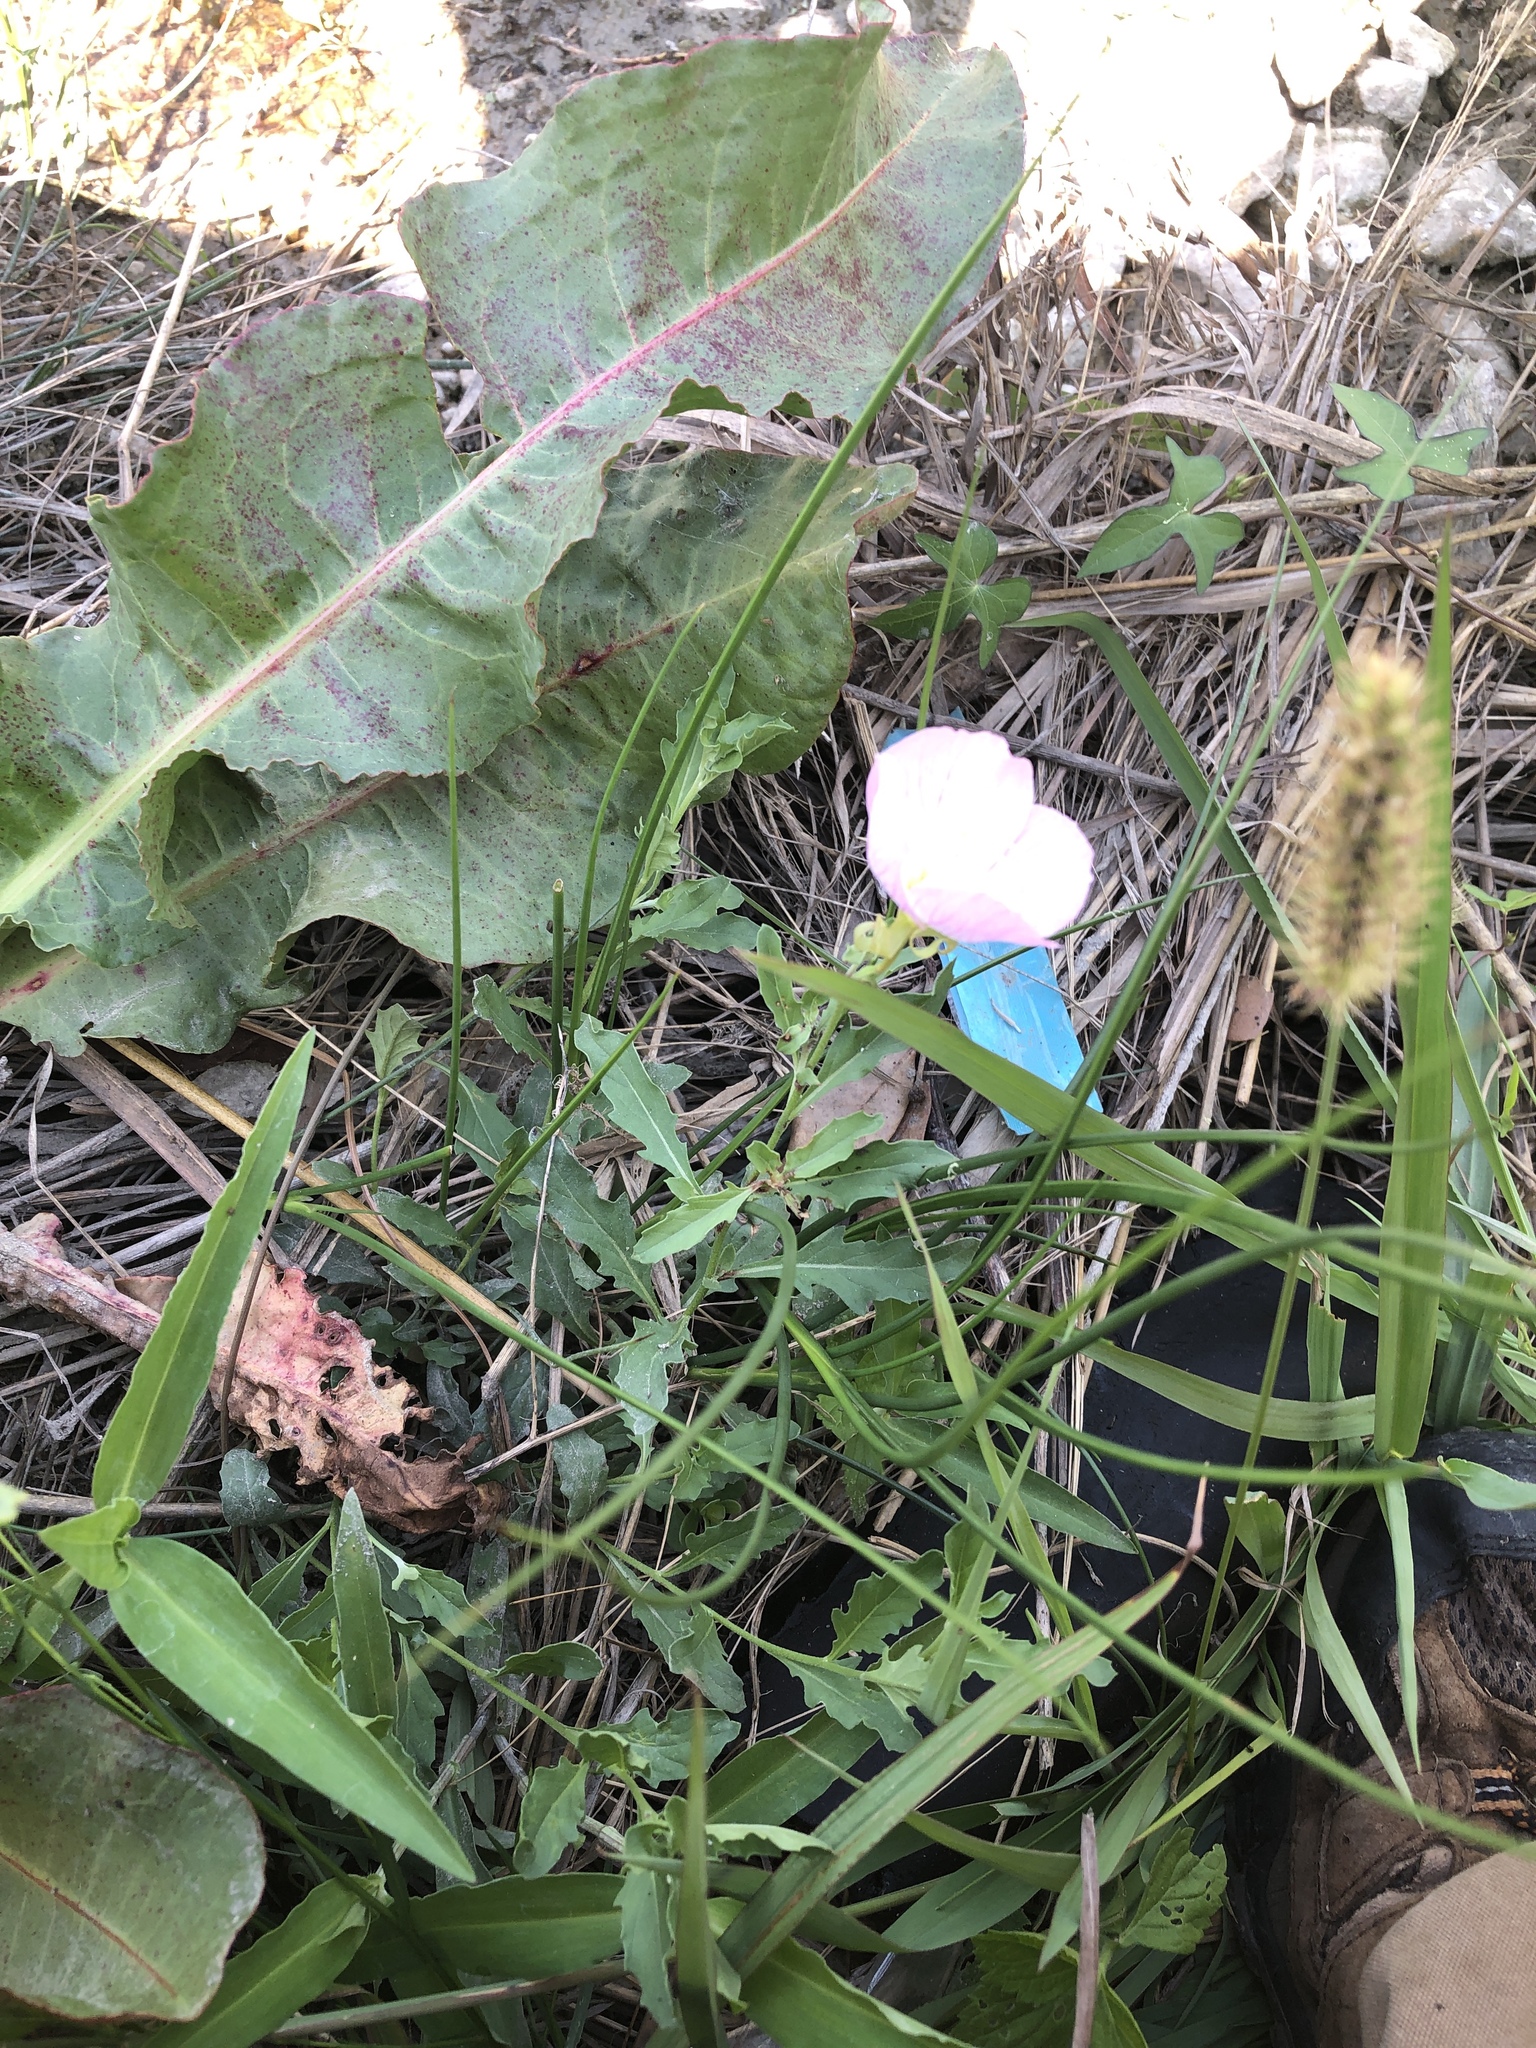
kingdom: Plantae
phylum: Tracheophyta
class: Magnoliopsida
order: Myrtales
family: Onagraceae
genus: Oenothera
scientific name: Oenothera speciosa
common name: White evening-primrose
